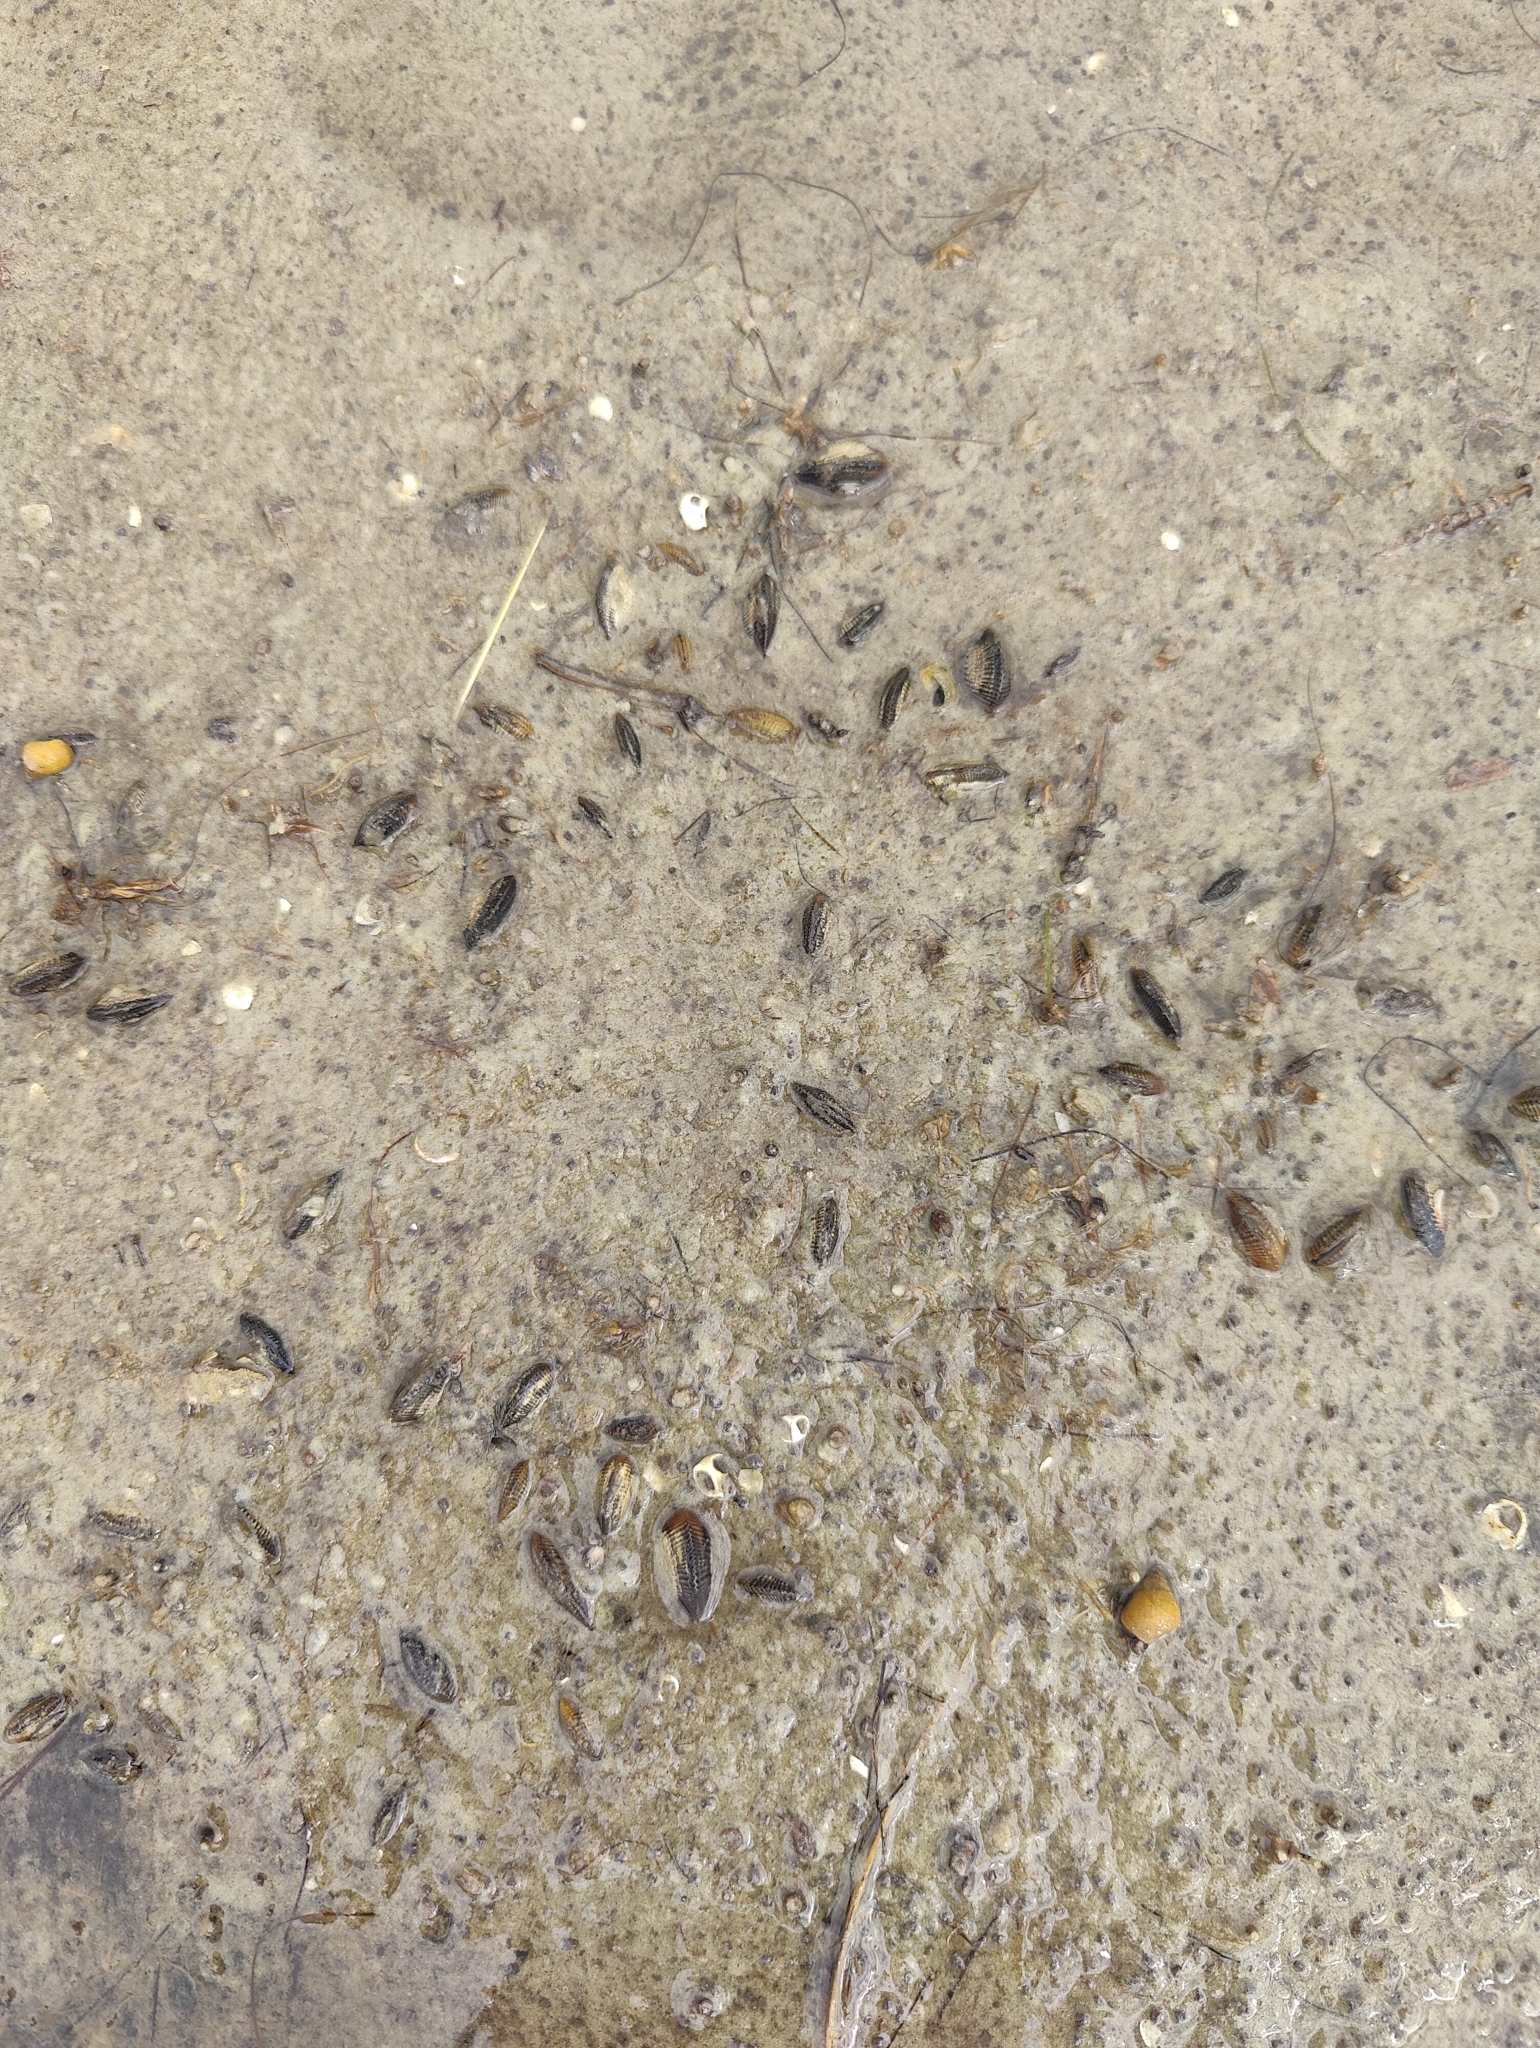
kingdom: Animalia
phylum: Mollusca
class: Bivalvia
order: Mytilida
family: Mytilidae
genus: Geukensia
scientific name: Geukensia granosissima
